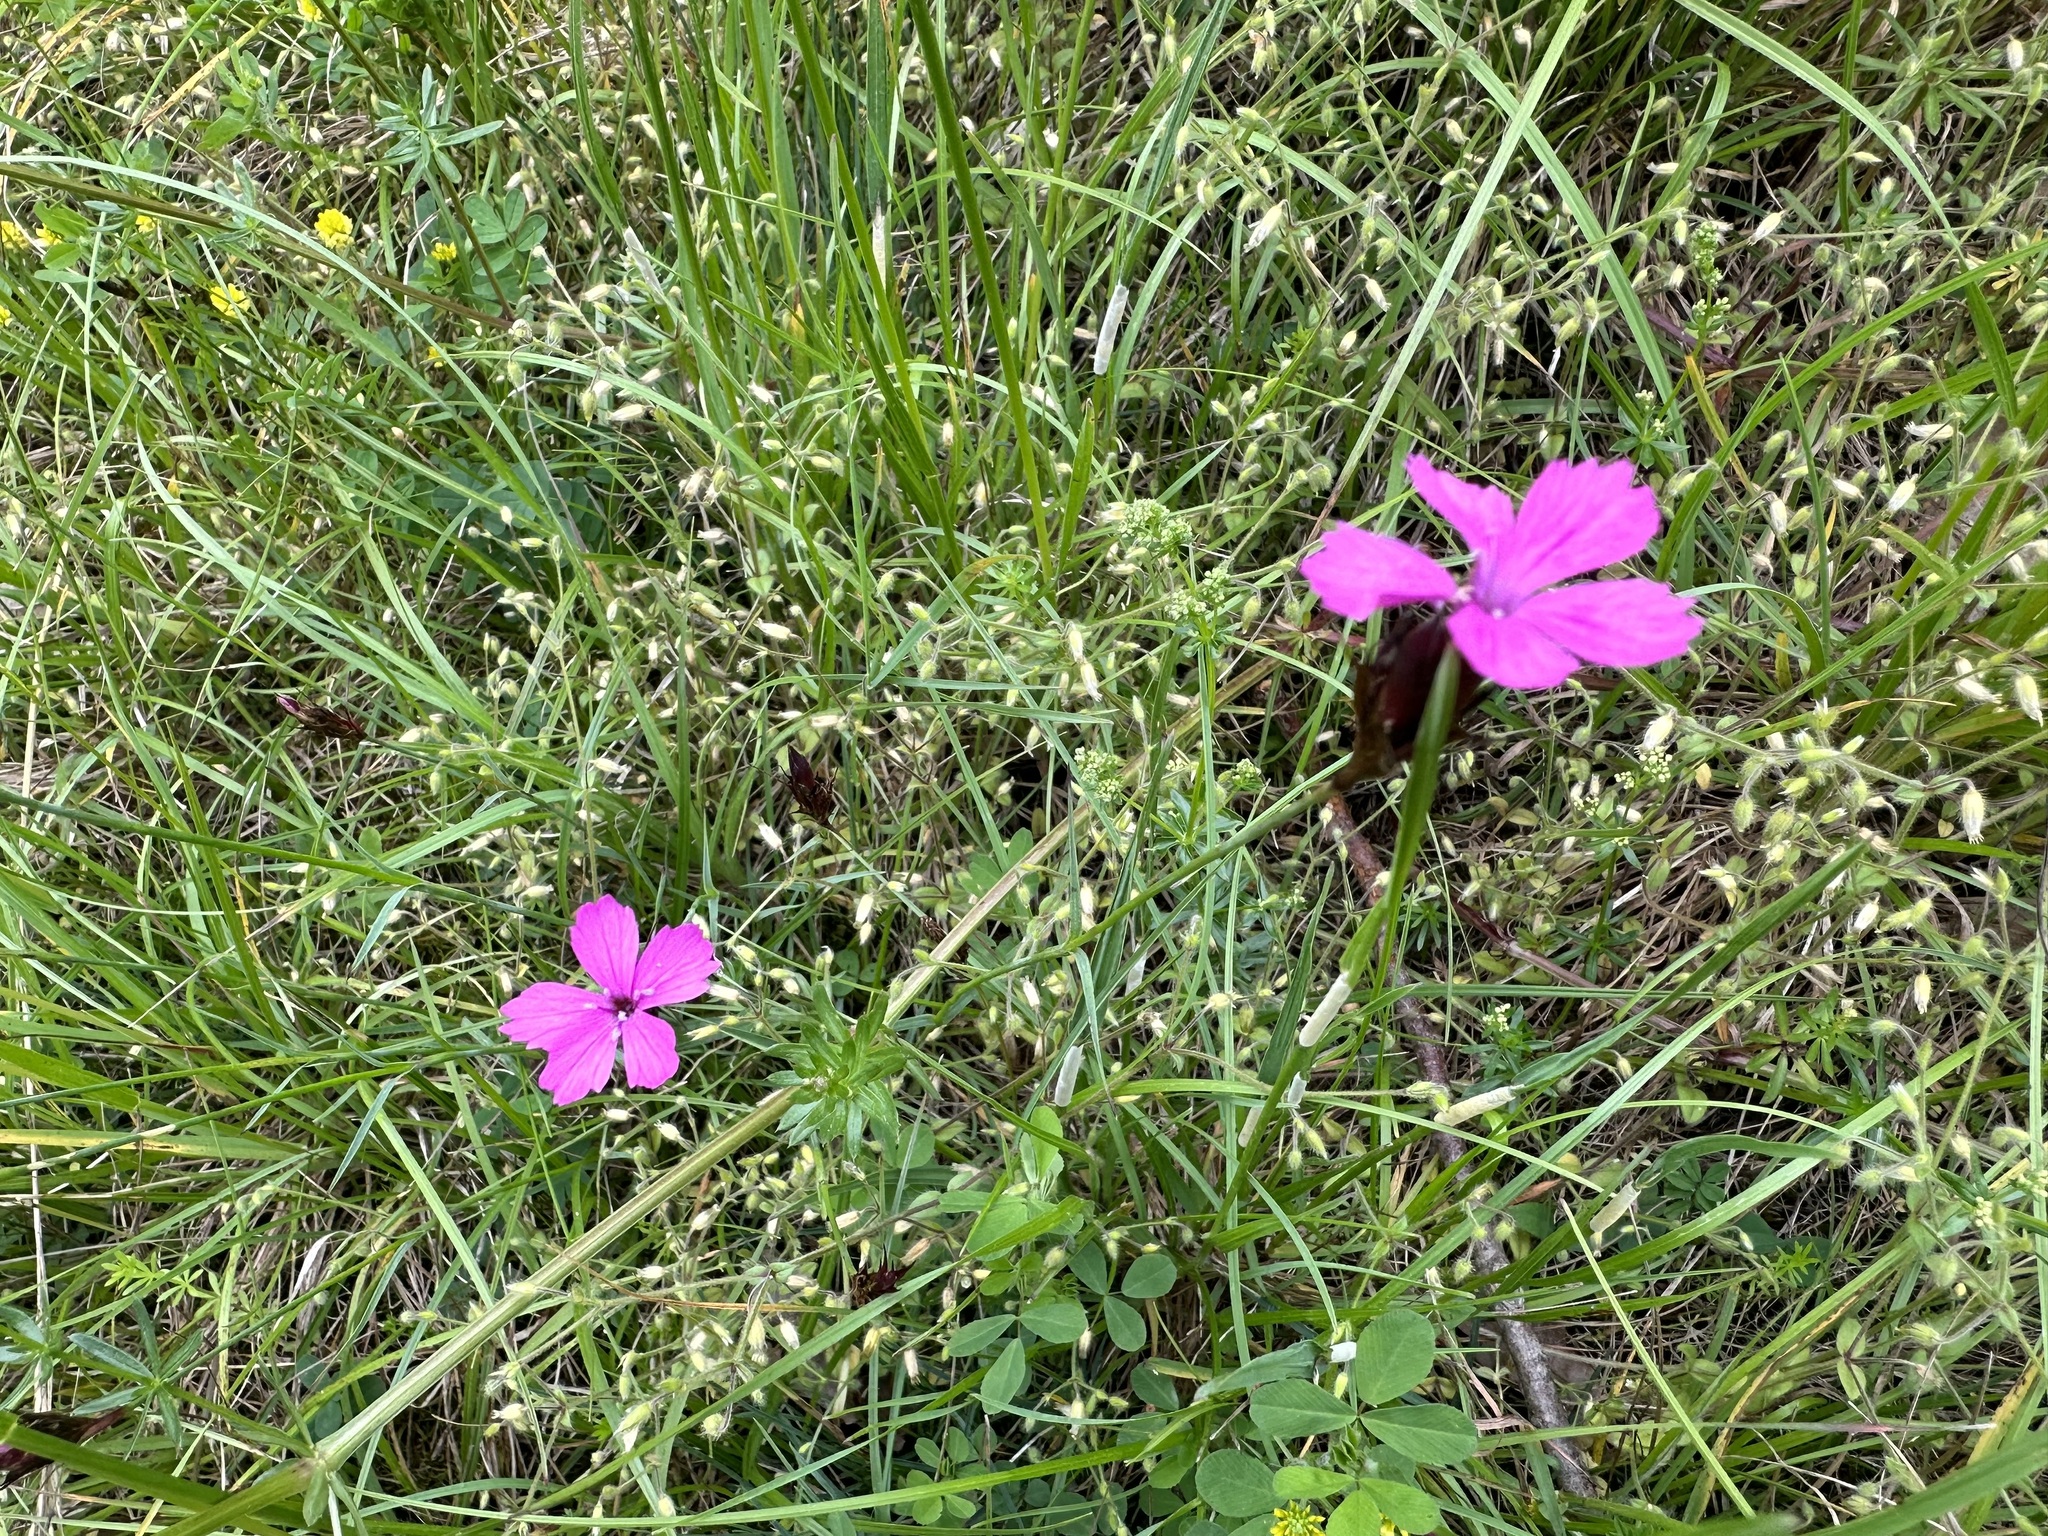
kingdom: Plantae
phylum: Tracheophyta
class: Magnoliopsida
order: Caryophyllales
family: Caryophyllaceae
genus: Dianthus
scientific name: Dianthus carthusianorum
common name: Carthusian pink
